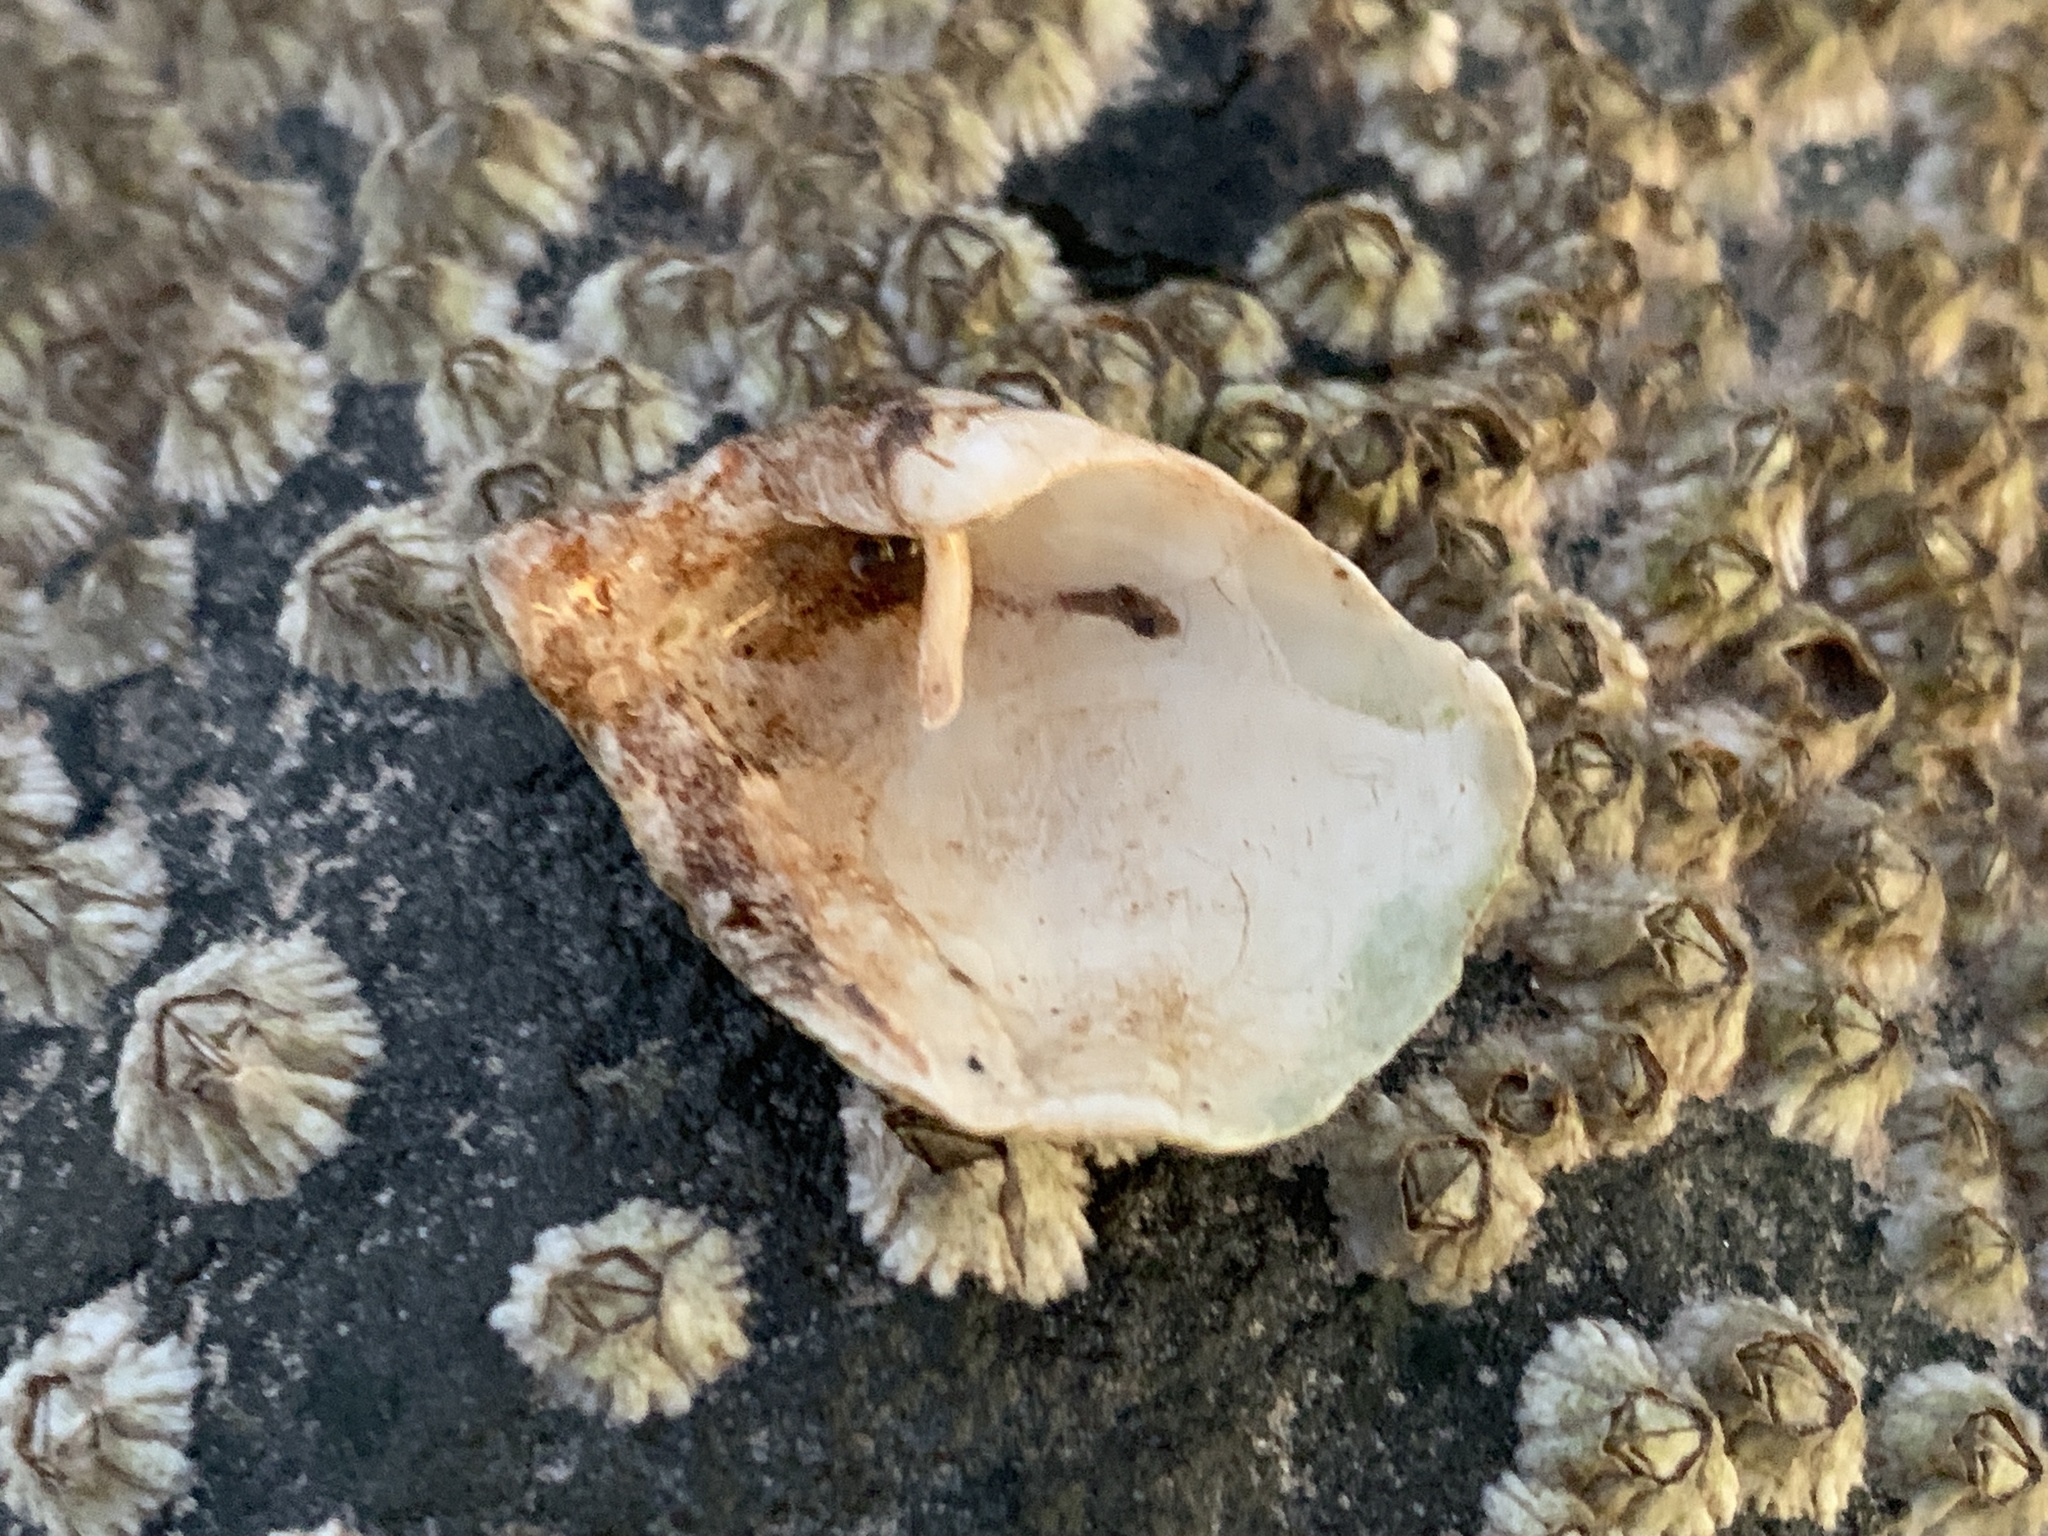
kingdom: Animalia
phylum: Mollusca
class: Bivalvia
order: Myida
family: Pholadidae
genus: Zirfaea
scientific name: Zirfaea crispata
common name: Oval piddock
